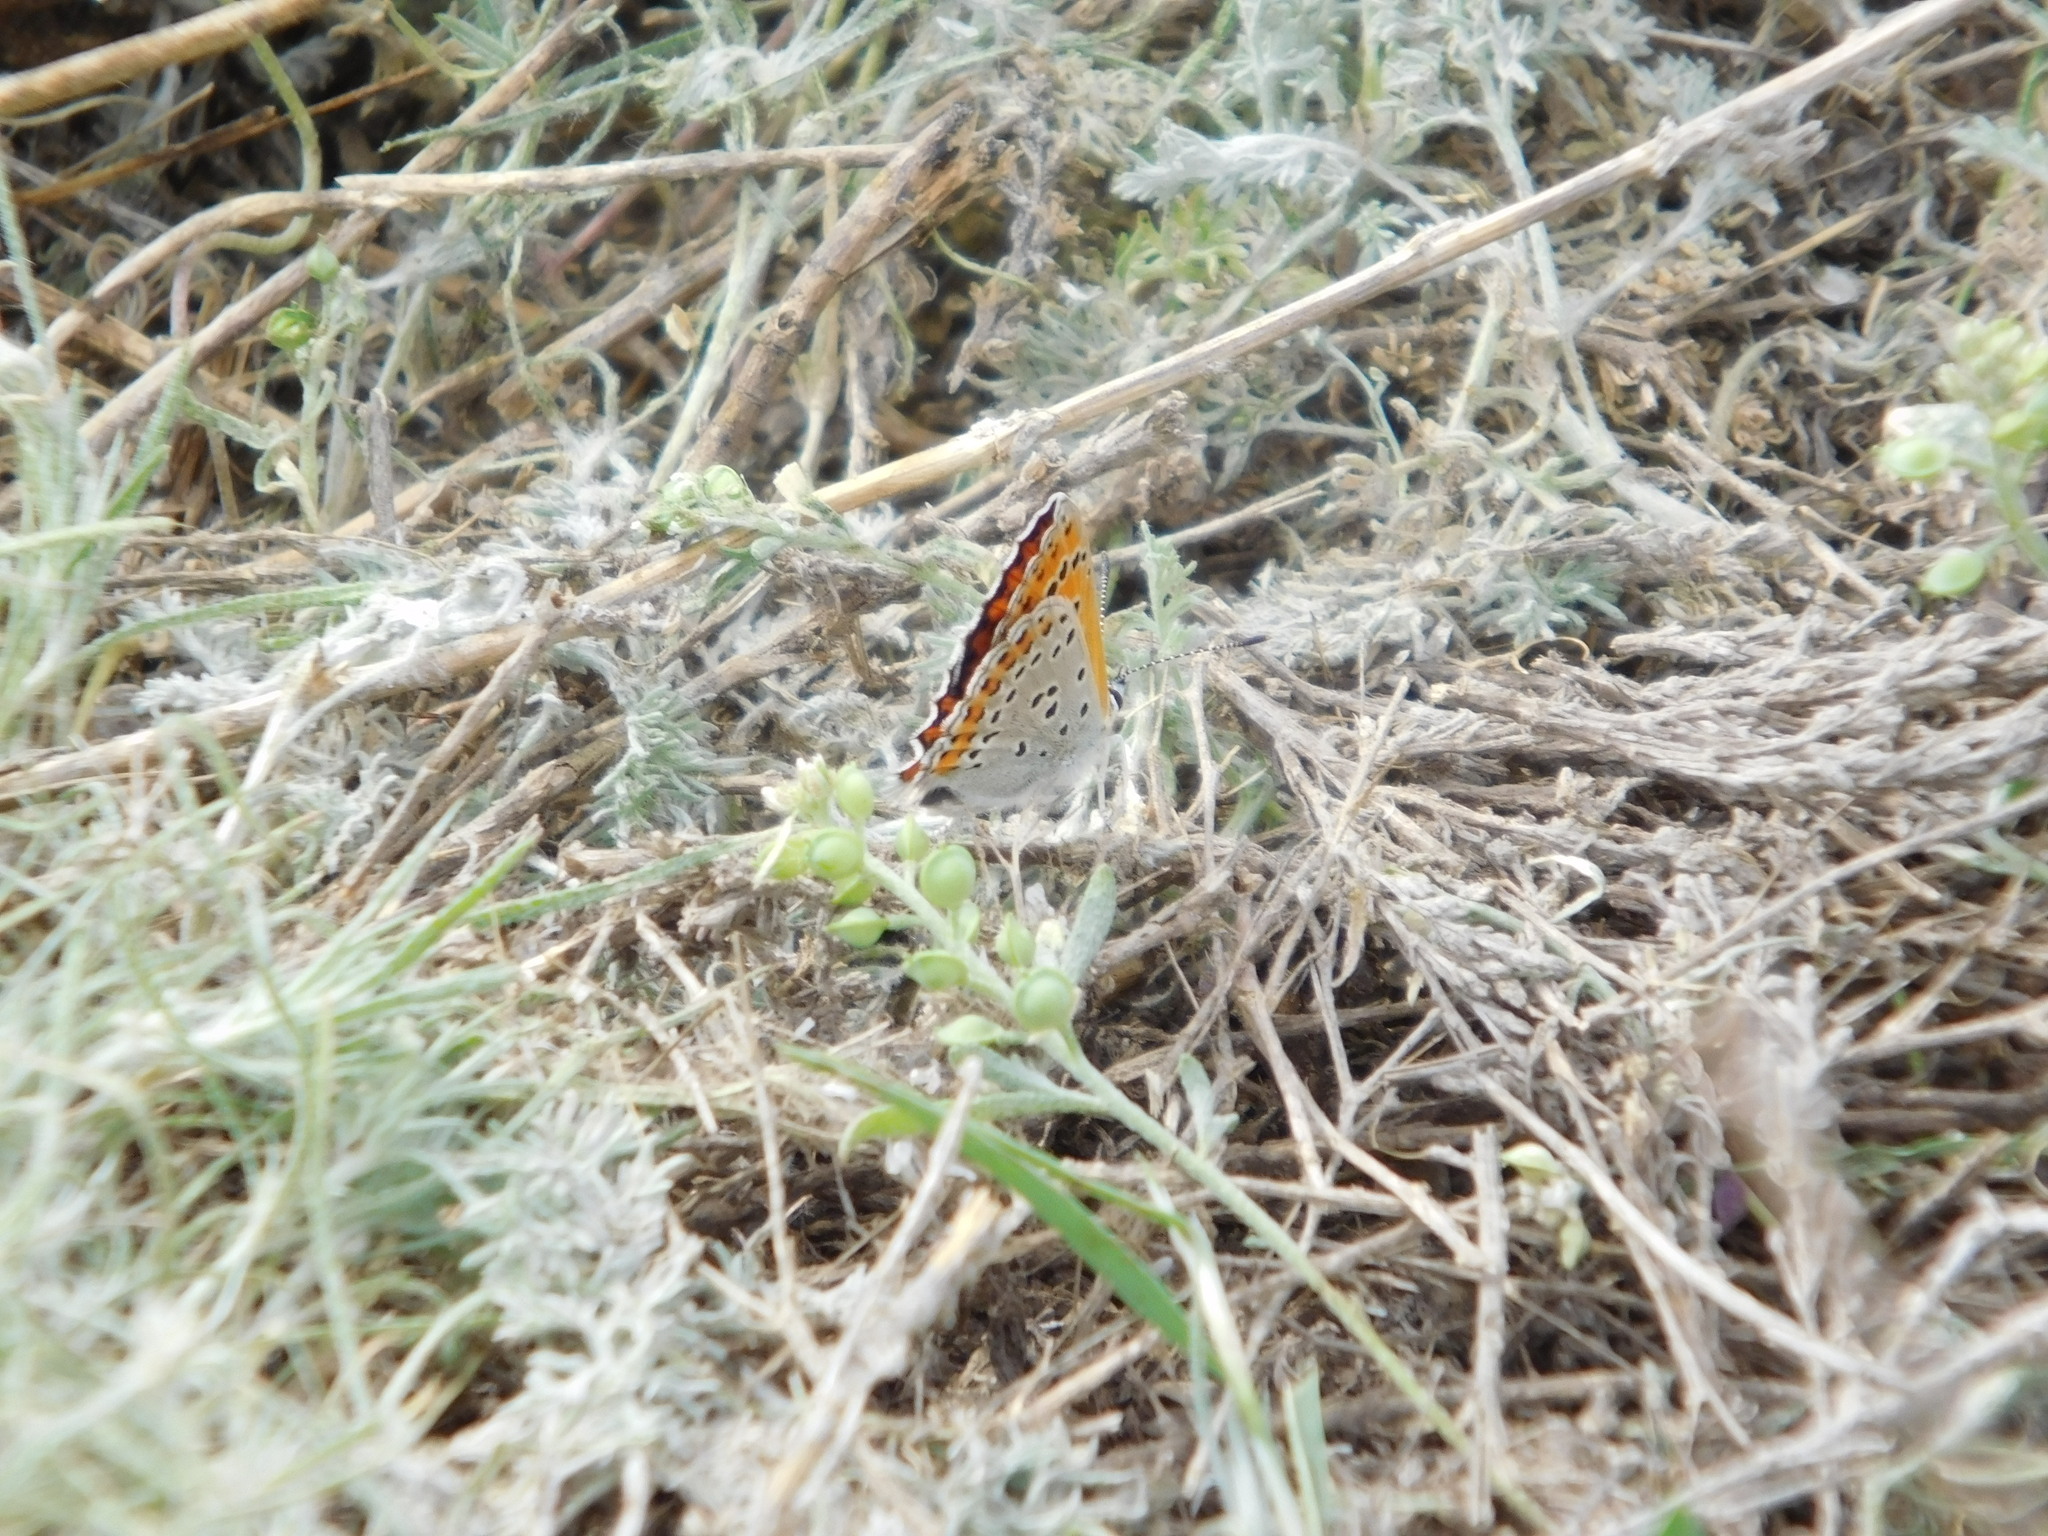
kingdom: Animalia
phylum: Arthropoda
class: Insecta
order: Lepidoptera
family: Lycaenidae
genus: Thersamonia
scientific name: Thersamonia thersamon
